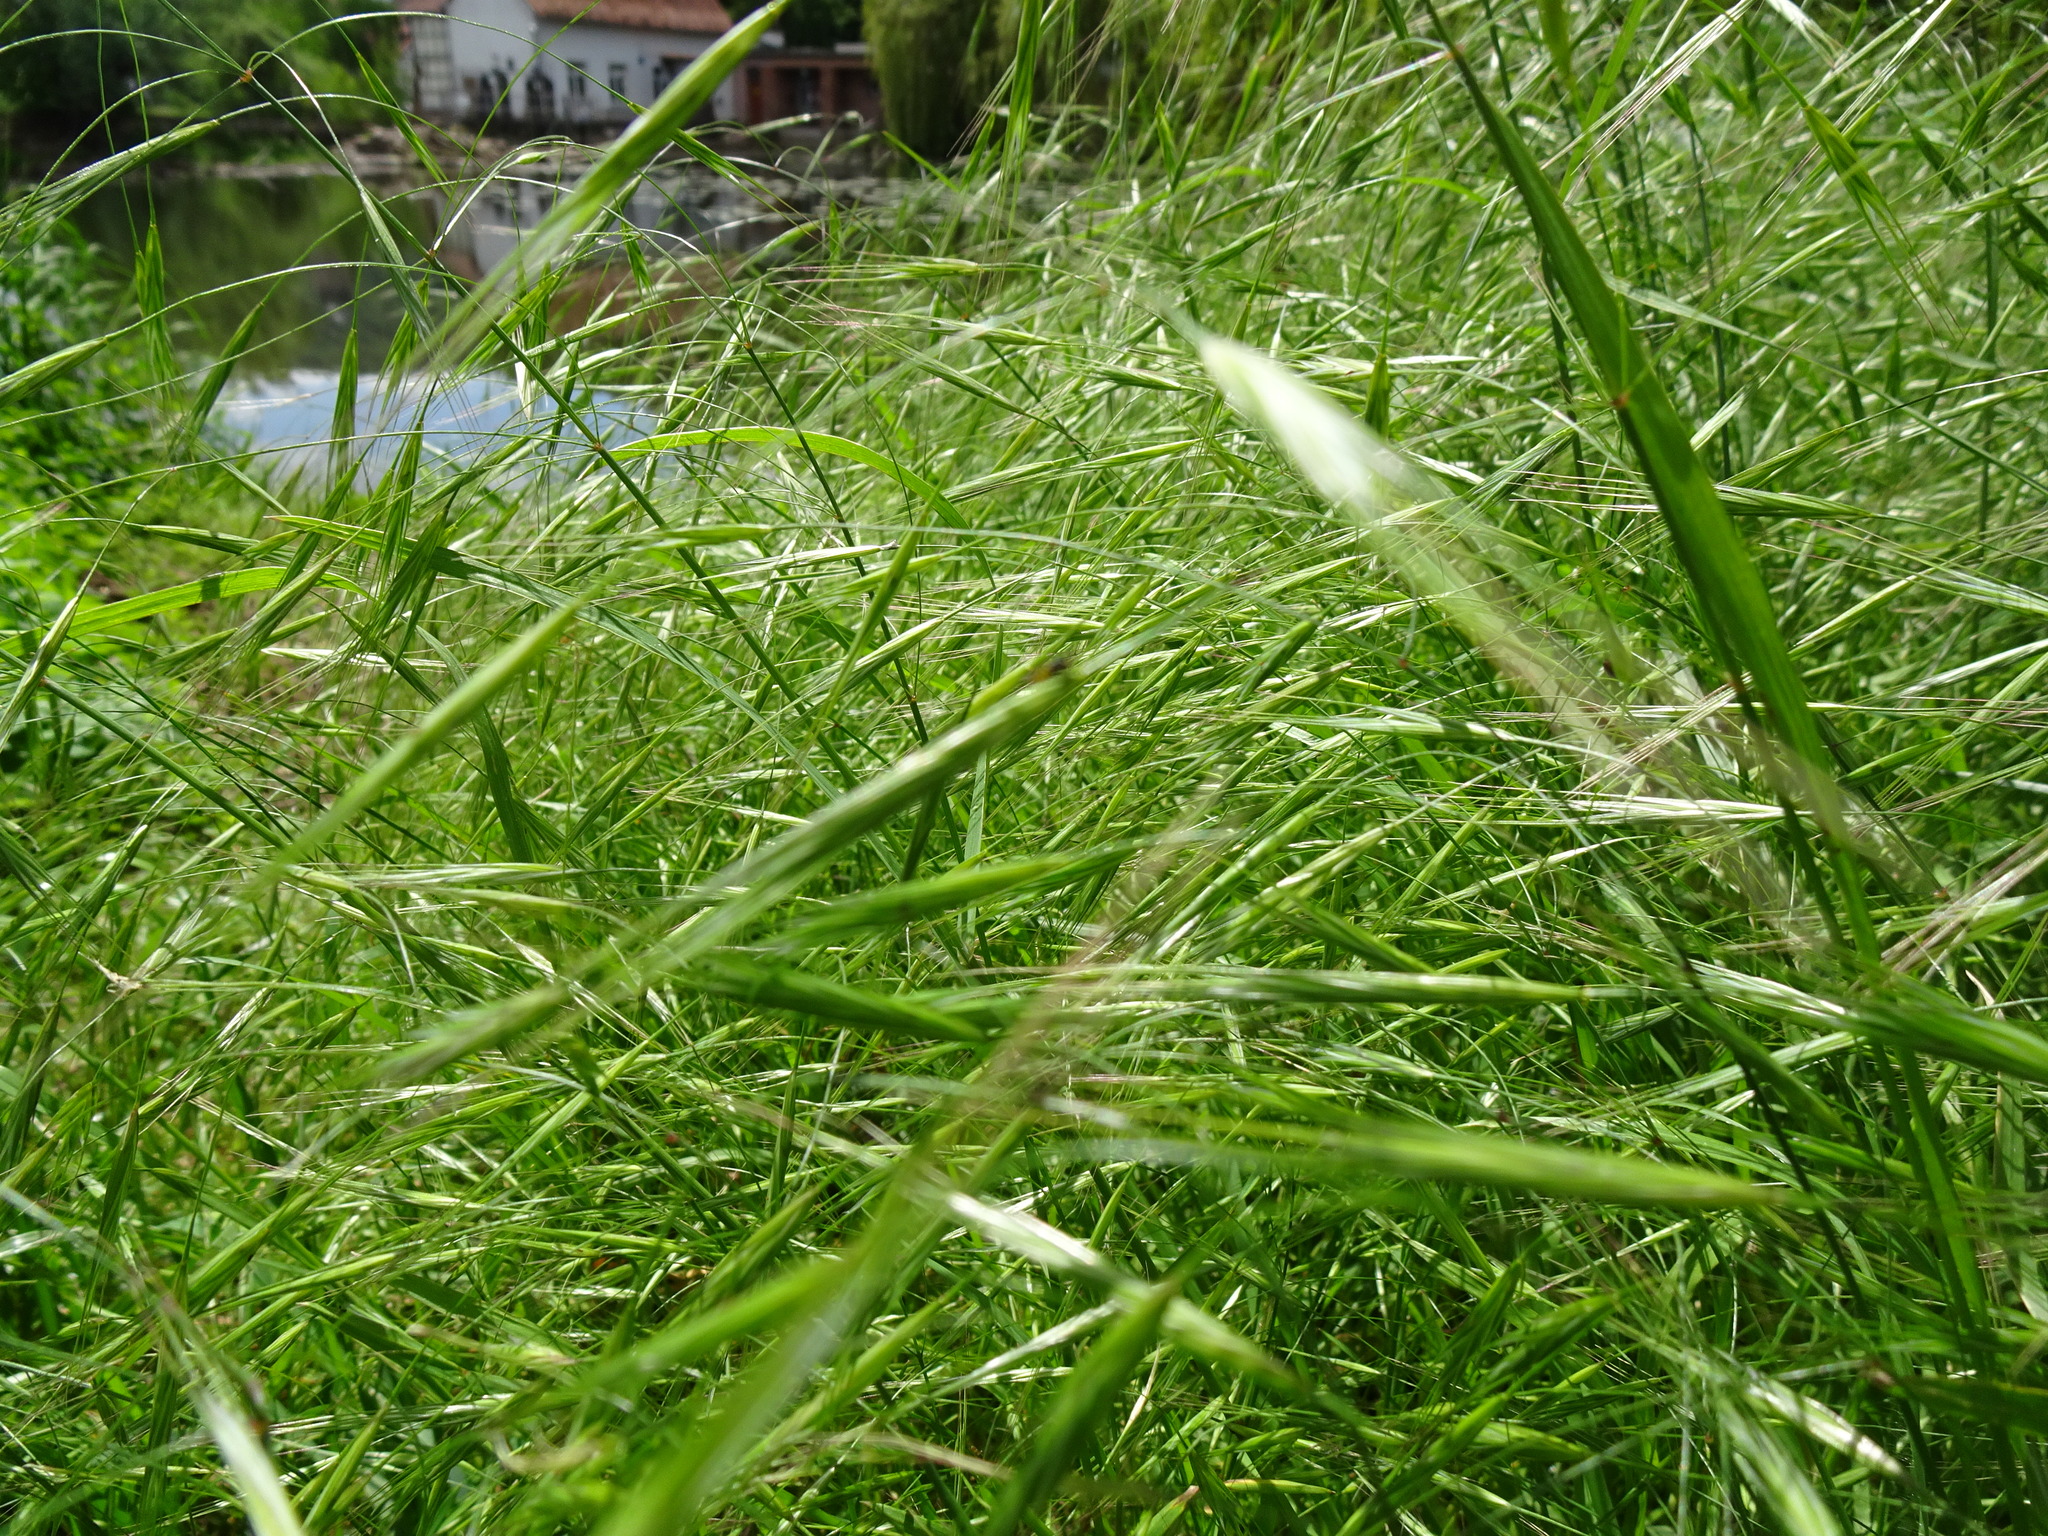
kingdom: Plantae
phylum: Tracheophyta
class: Liliopsida
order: Poales
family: Poaceae
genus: Bromus
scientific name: Bromus sterilis
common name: Poverty brome
